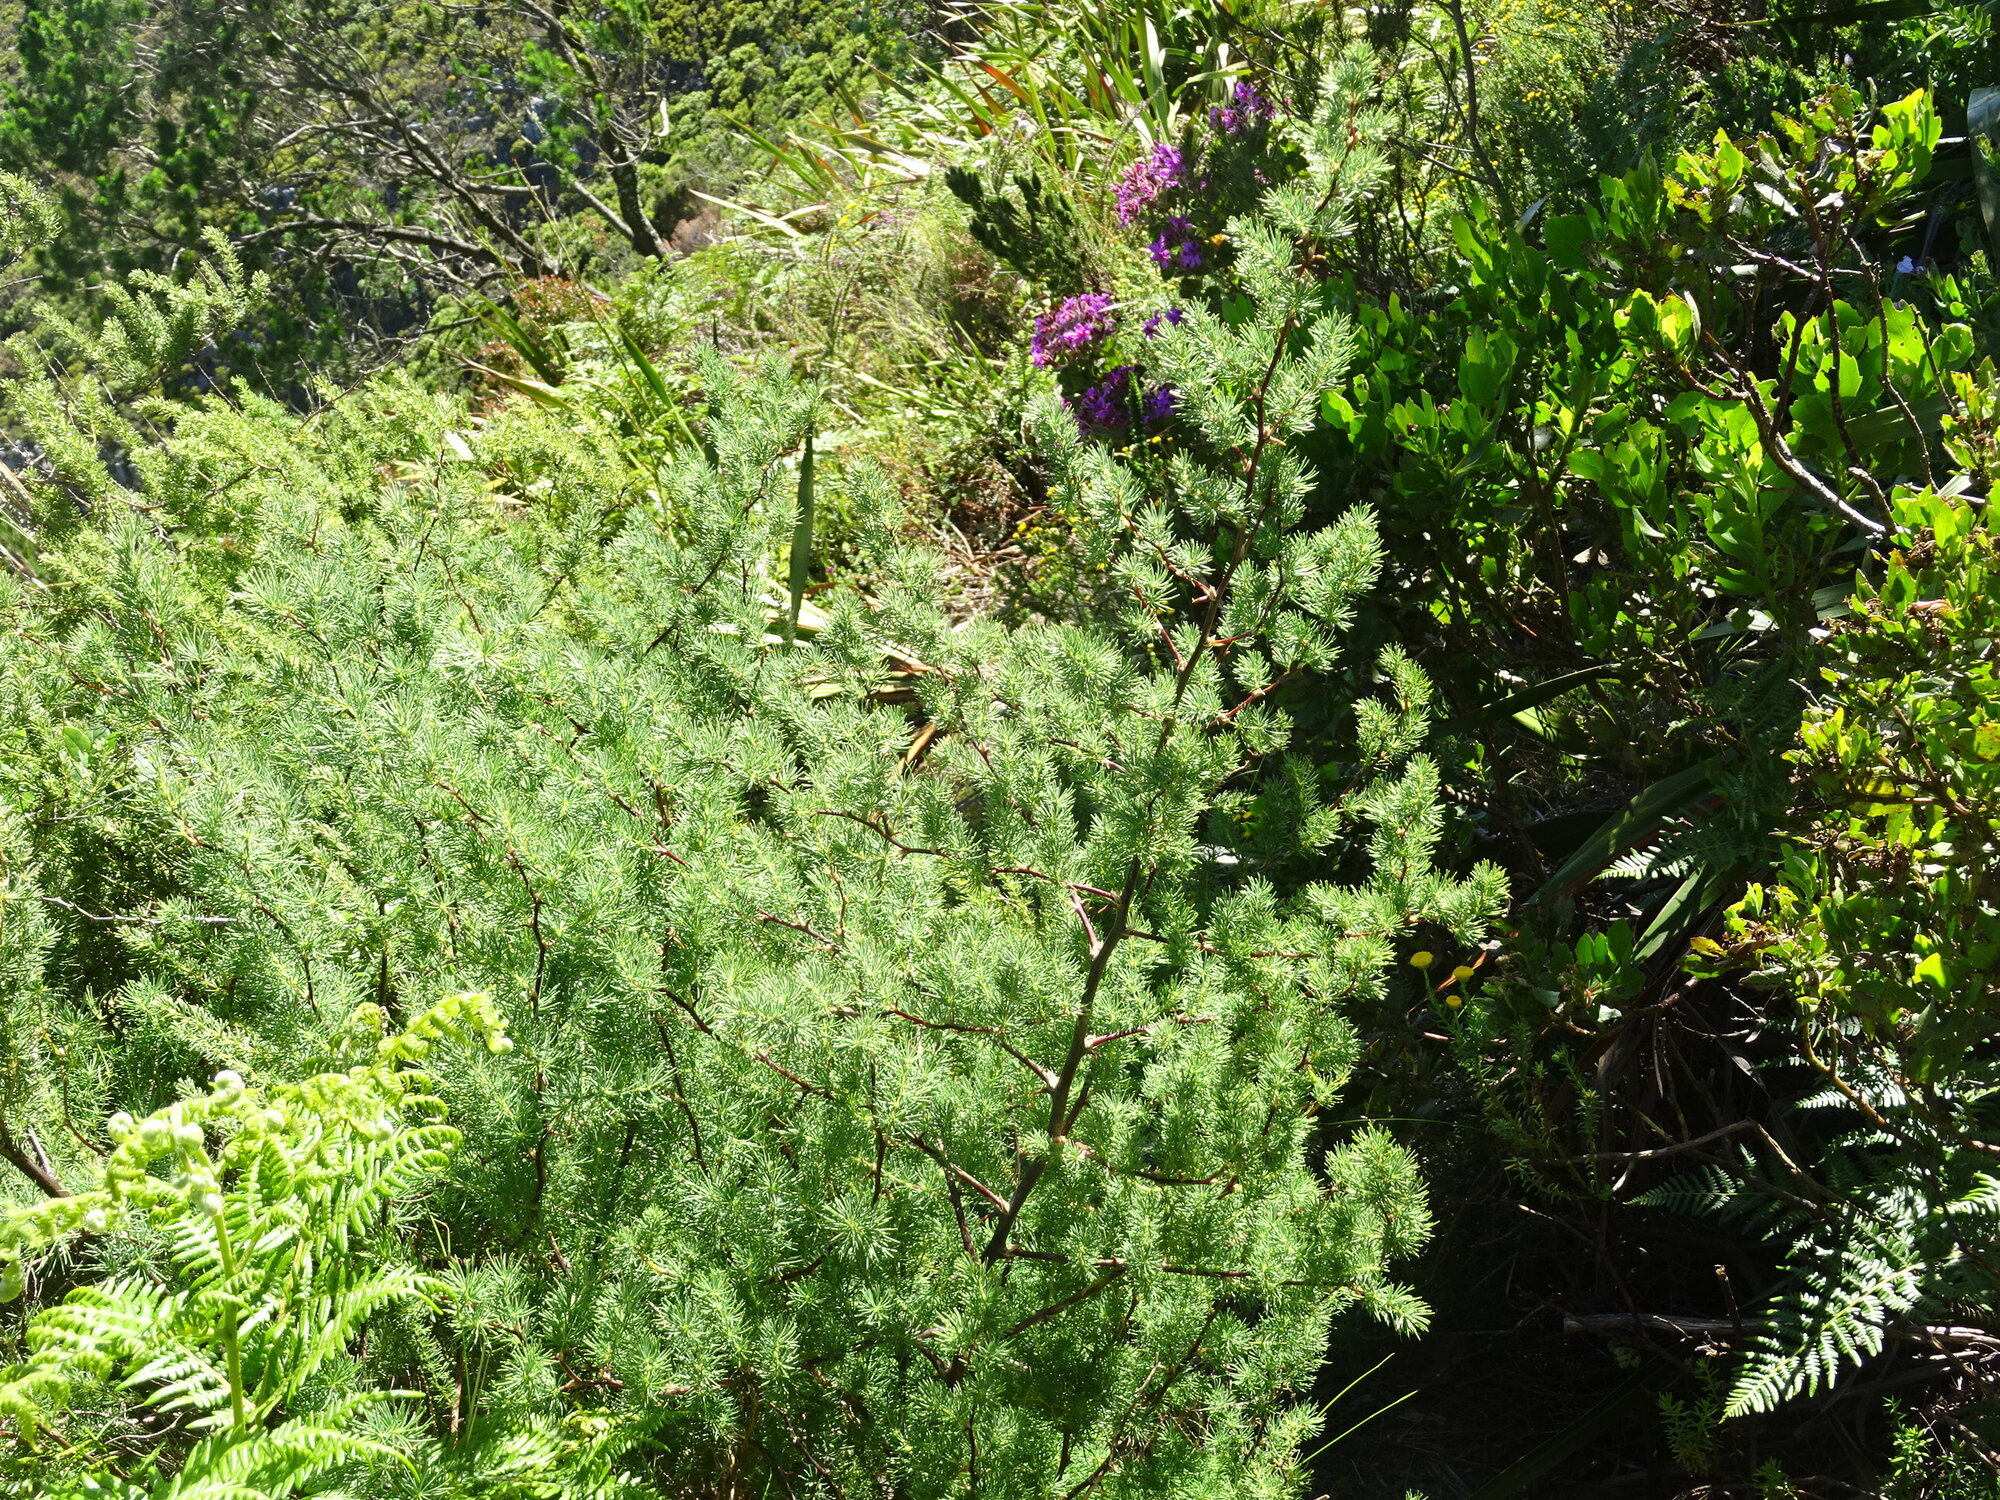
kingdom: Plantae
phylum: Tracheophyta
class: Liliopsida
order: Asparagales
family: Asparagaceae
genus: Asparagus
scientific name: Asparagus rubicundus
